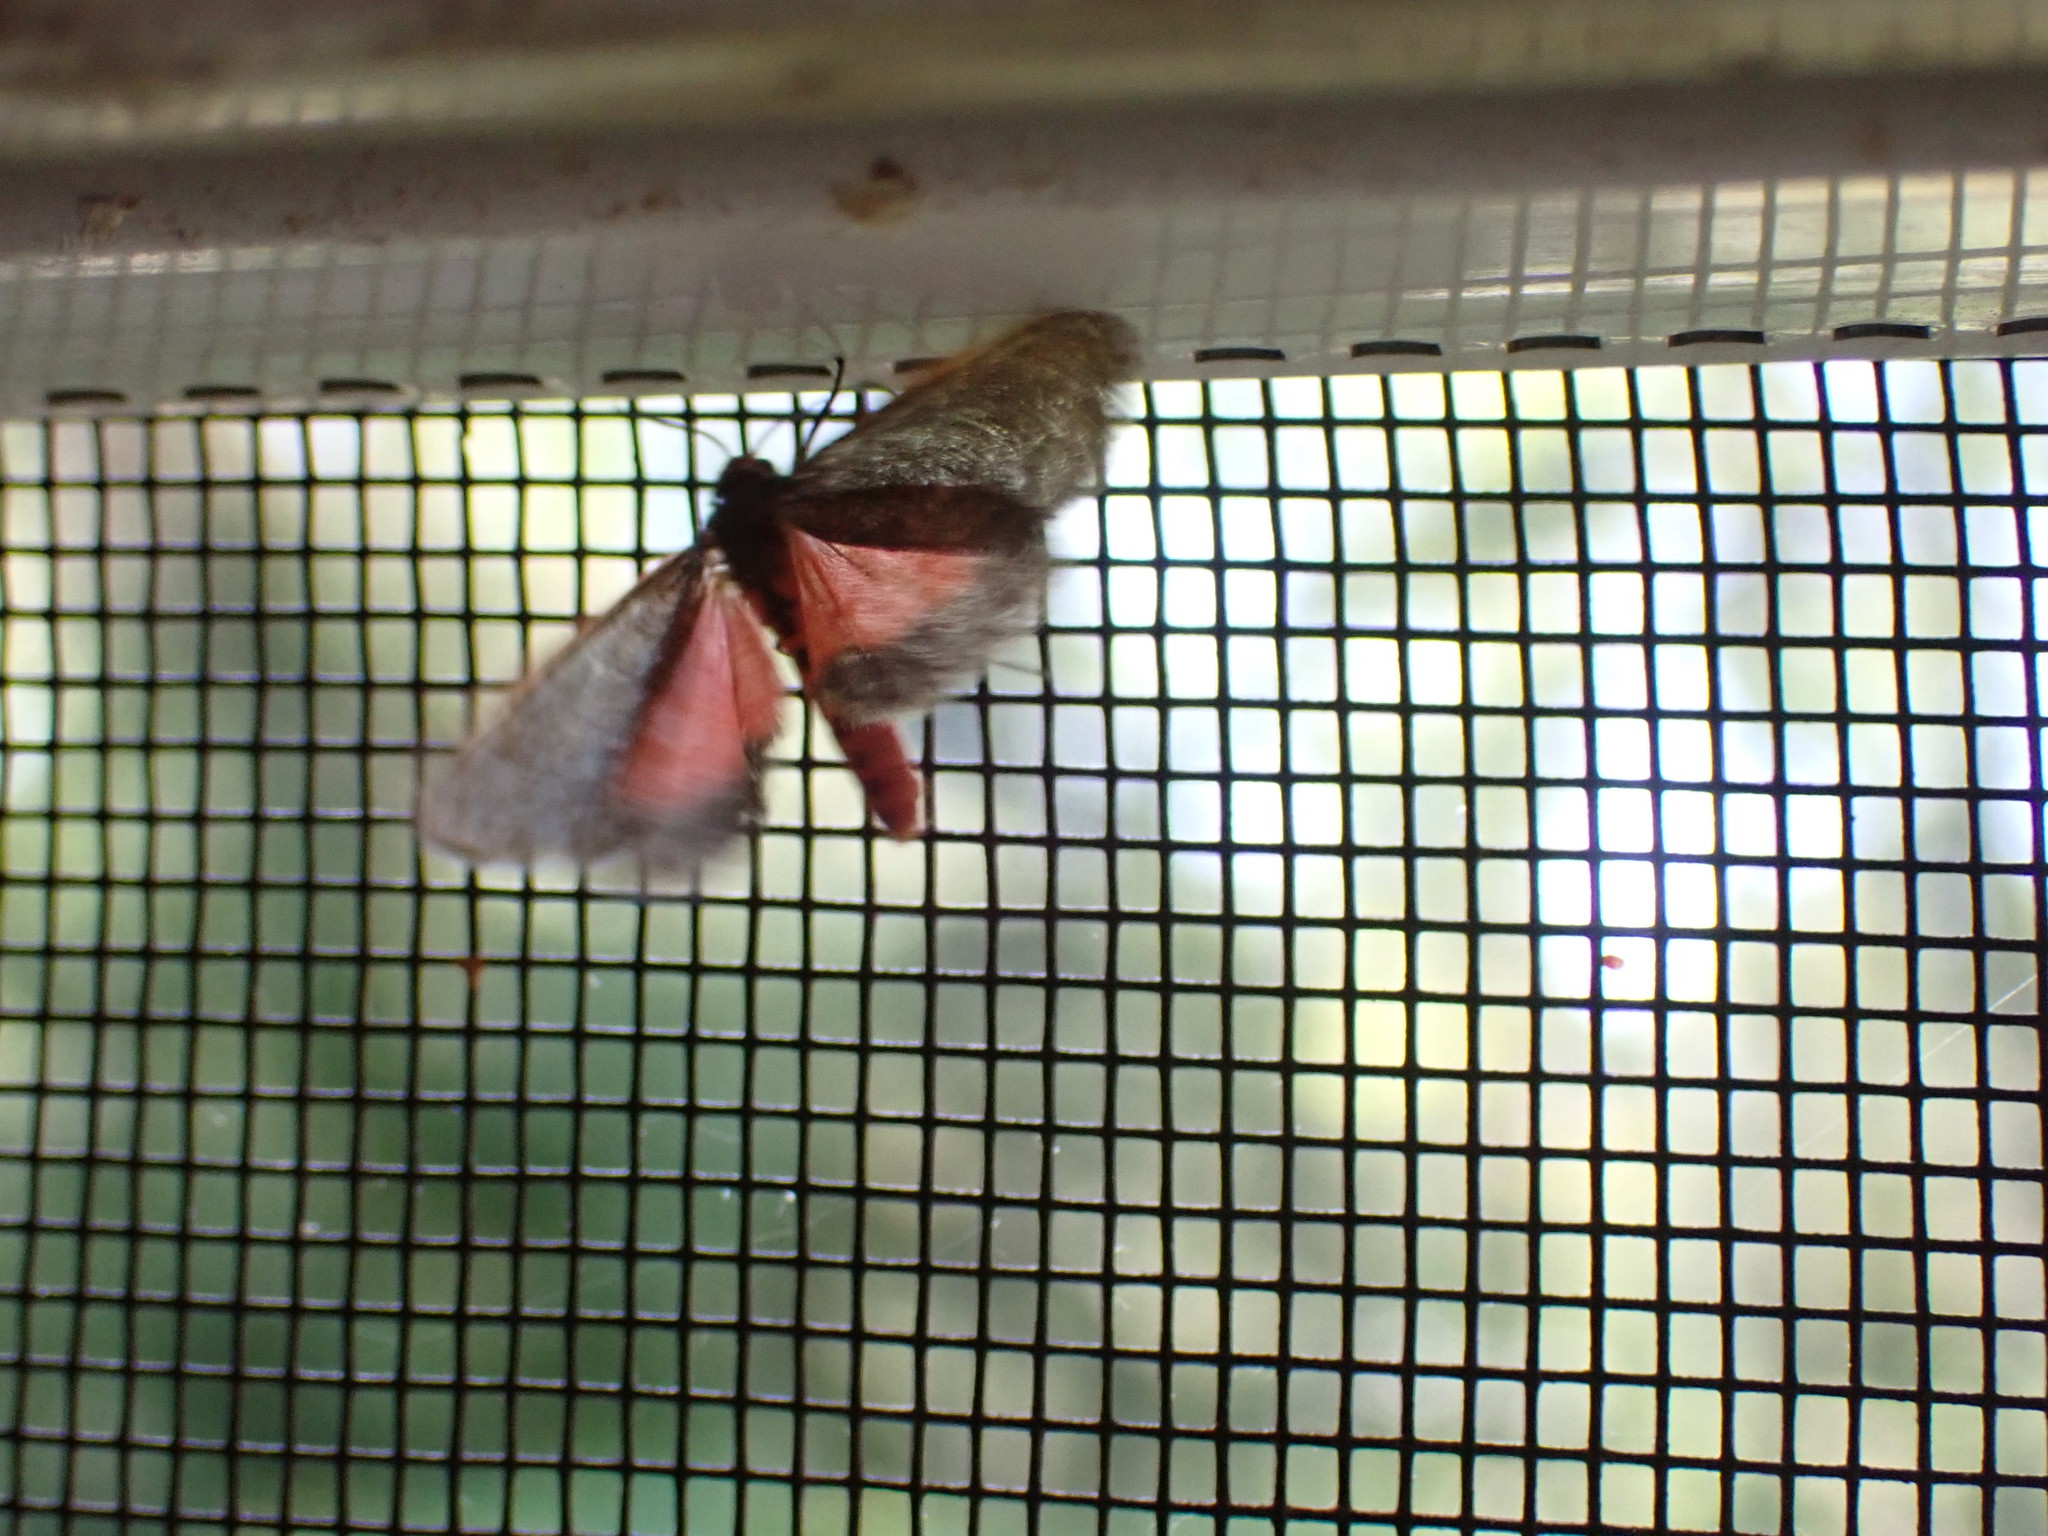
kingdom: Animalia
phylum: Arthropoda
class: Insecta
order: Lepidoptera
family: Erebidae
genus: Virbia
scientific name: Virbia laeta
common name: Joyful holomelina moth
